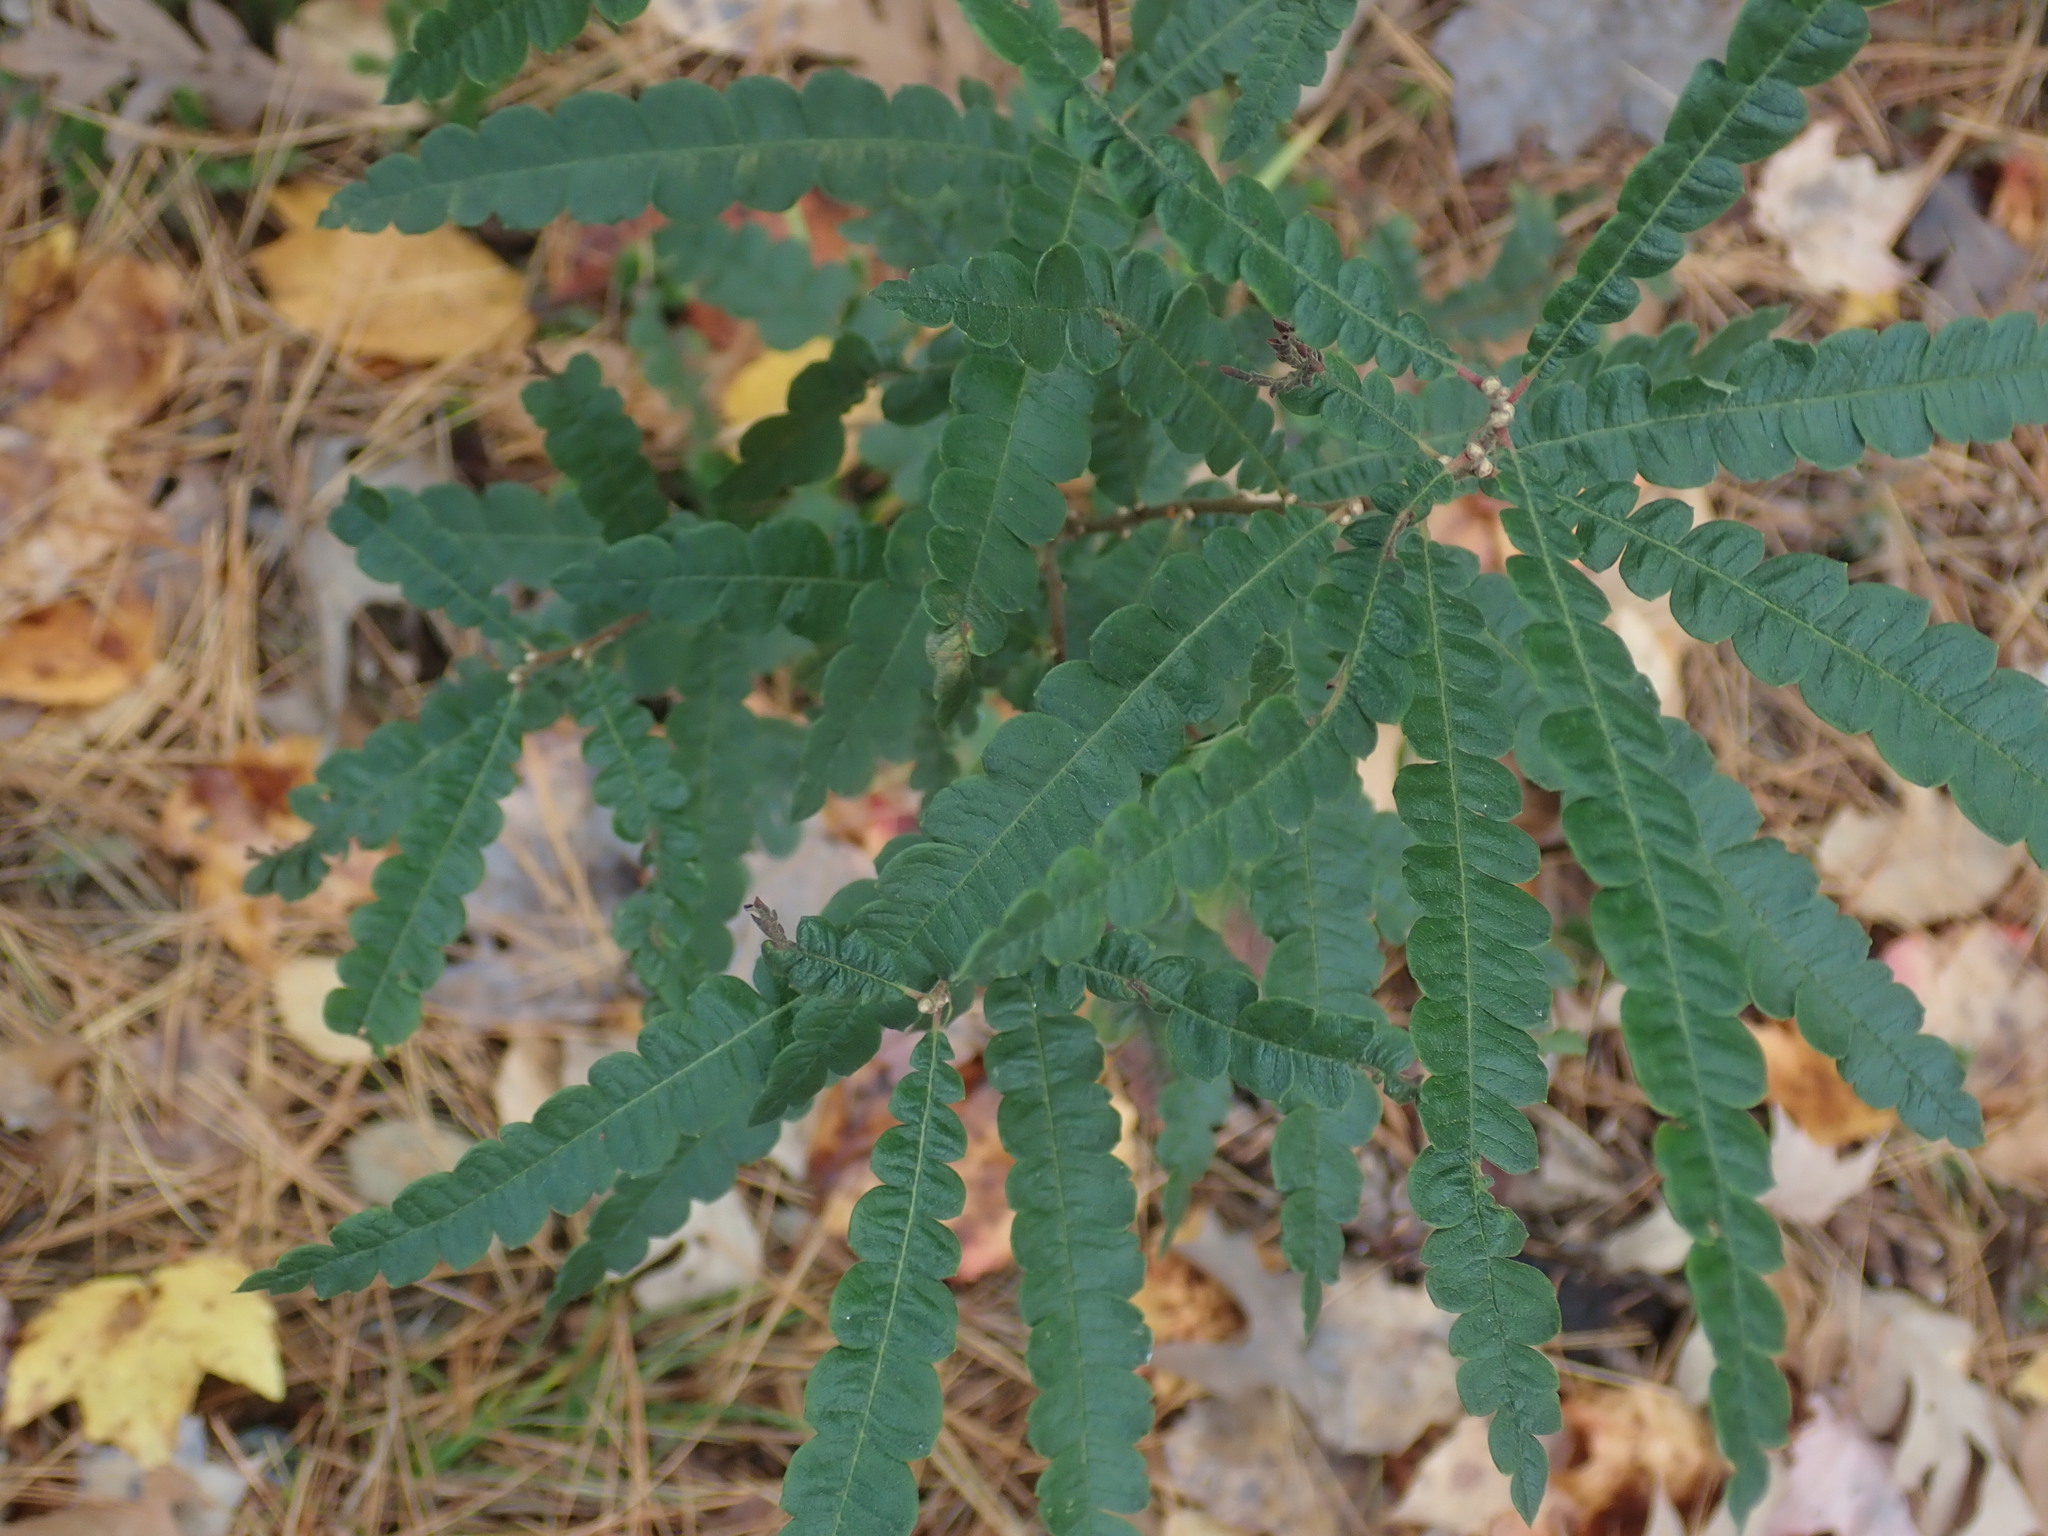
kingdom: Plantae
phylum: Tracheophyta
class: Magnoliopsida
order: Fagales
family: Myricaceae
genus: Comptonia
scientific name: Comptonia peregrina
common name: Sweet-fern
